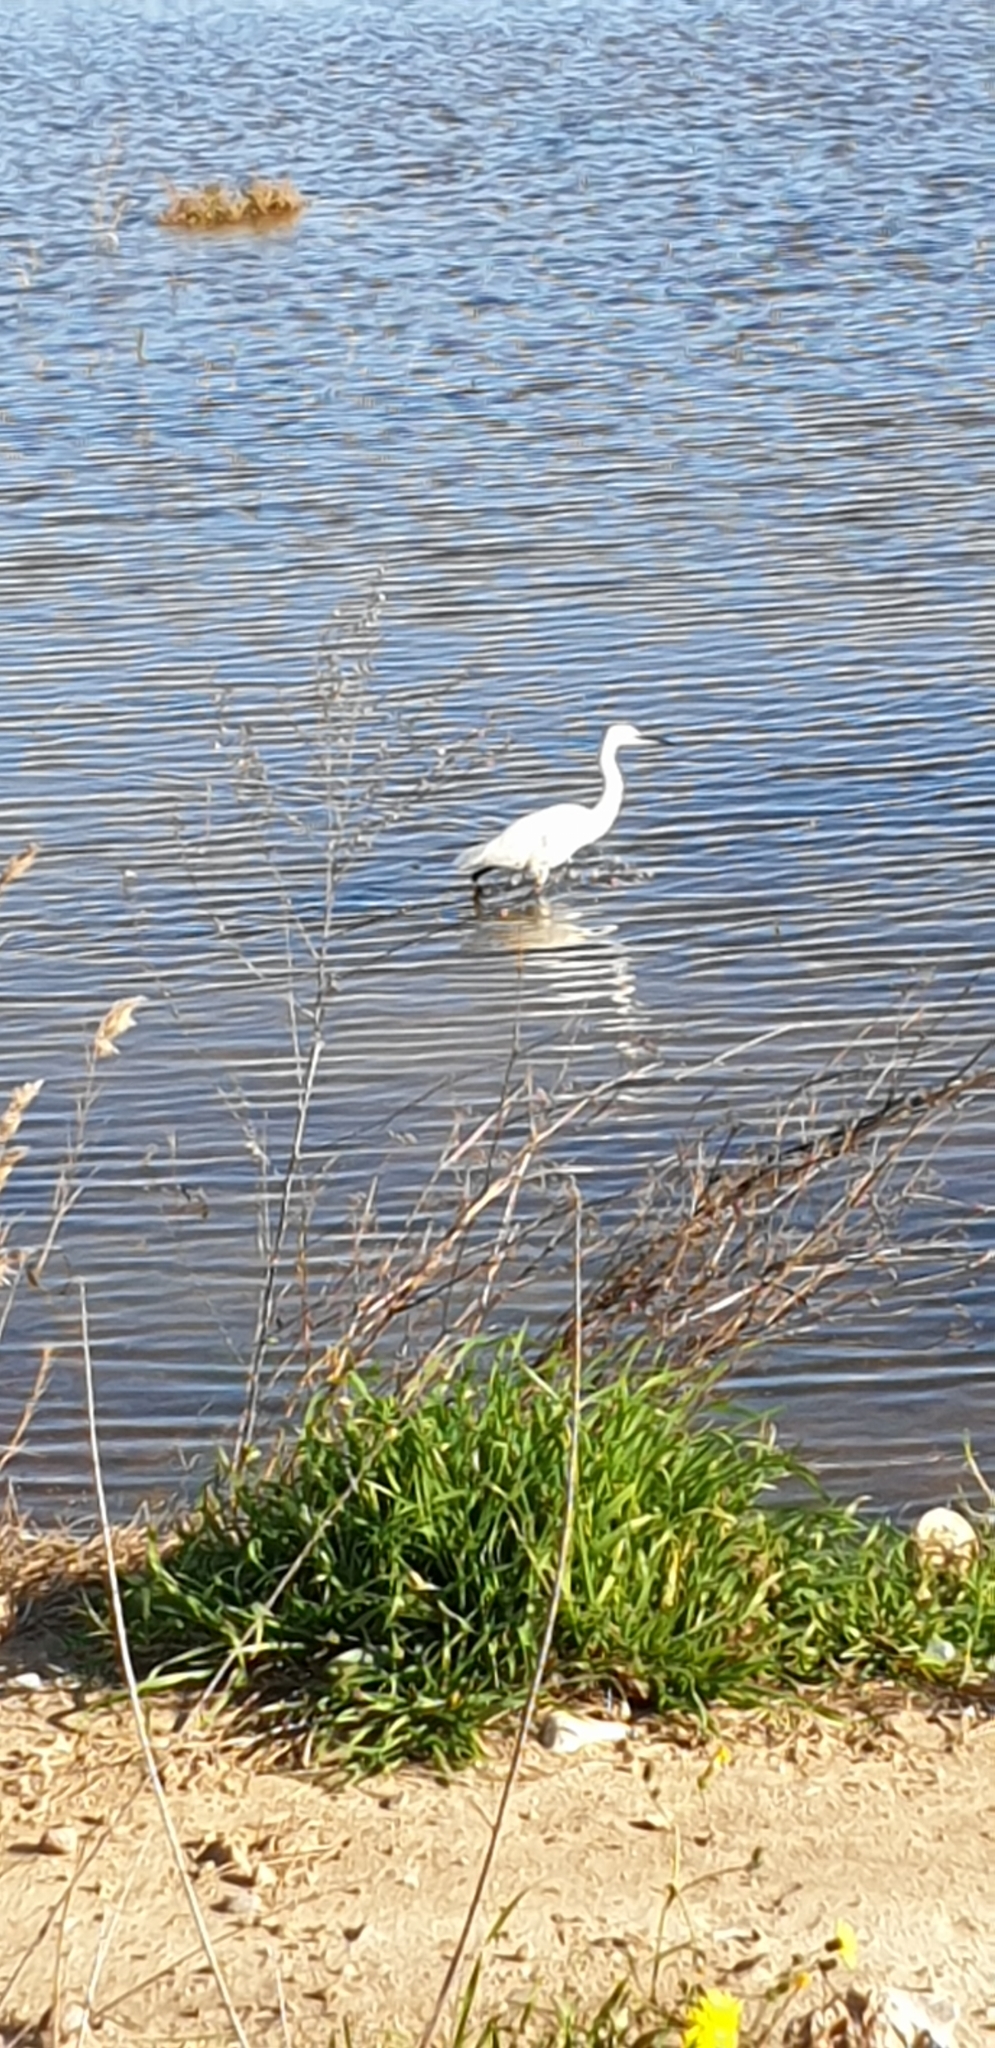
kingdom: Animalia
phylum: Chordata
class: Aves
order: Pelecaniformes
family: Ardeidae
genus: Egretta
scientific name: Egretta garzetta
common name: Little egret
